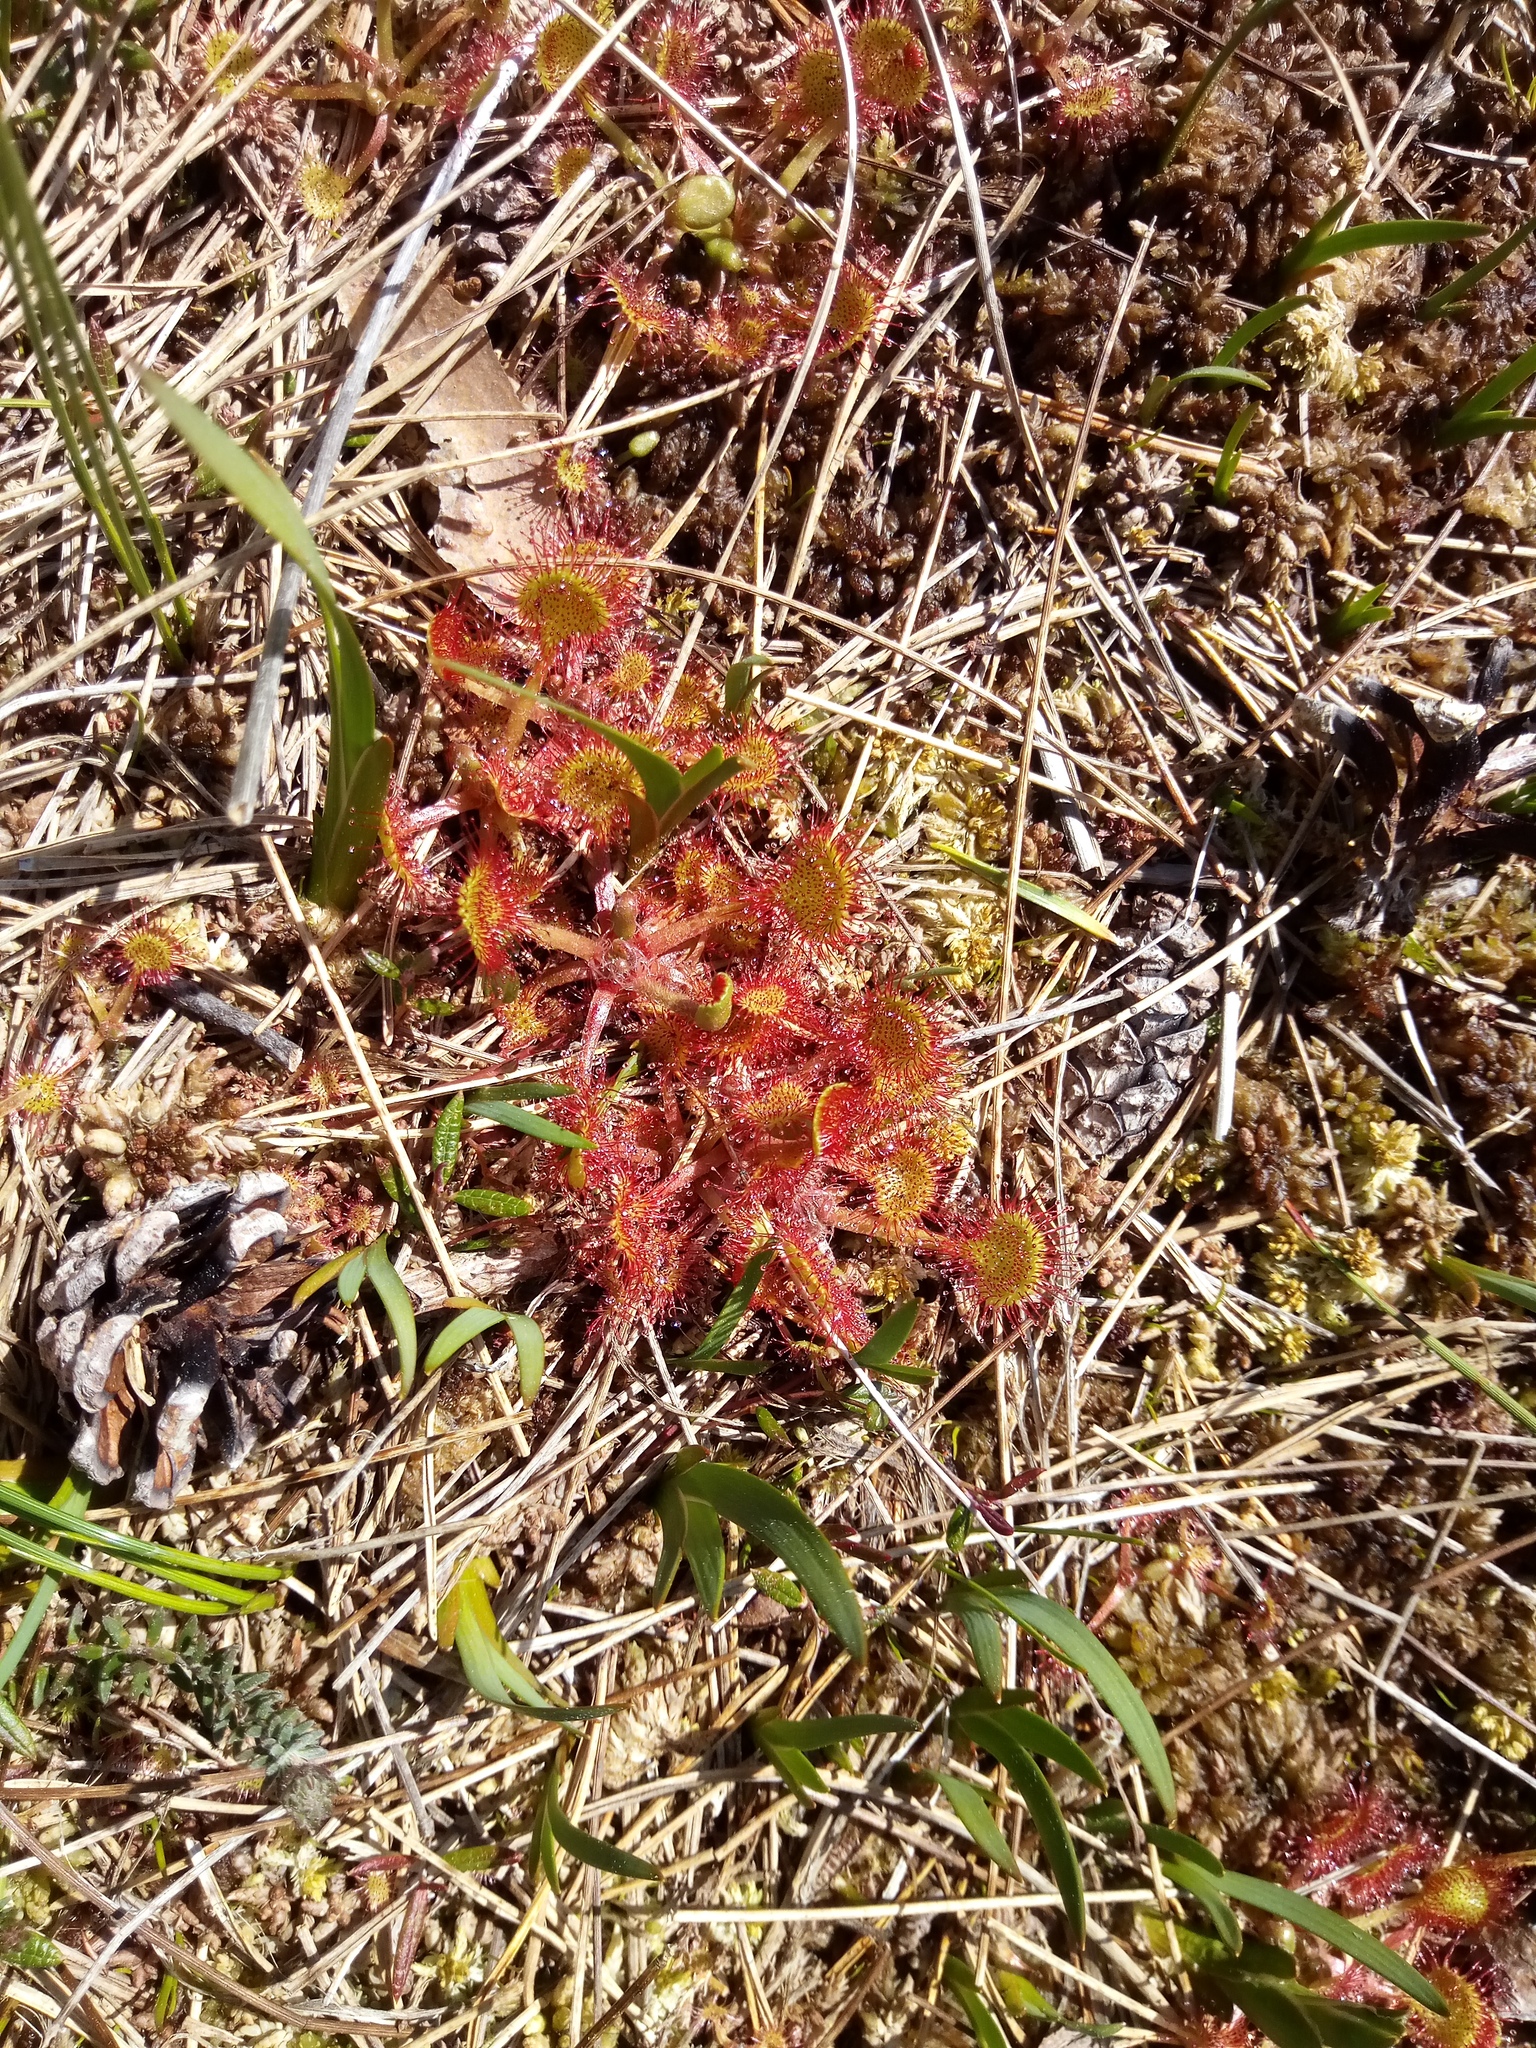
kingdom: Plantae
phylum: Tracheophyta
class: Magnoliopsida
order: Caryophyllales
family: Droseraceae
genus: Drosera
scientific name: Drosera rotundifolia
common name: Round-leaved sundew
